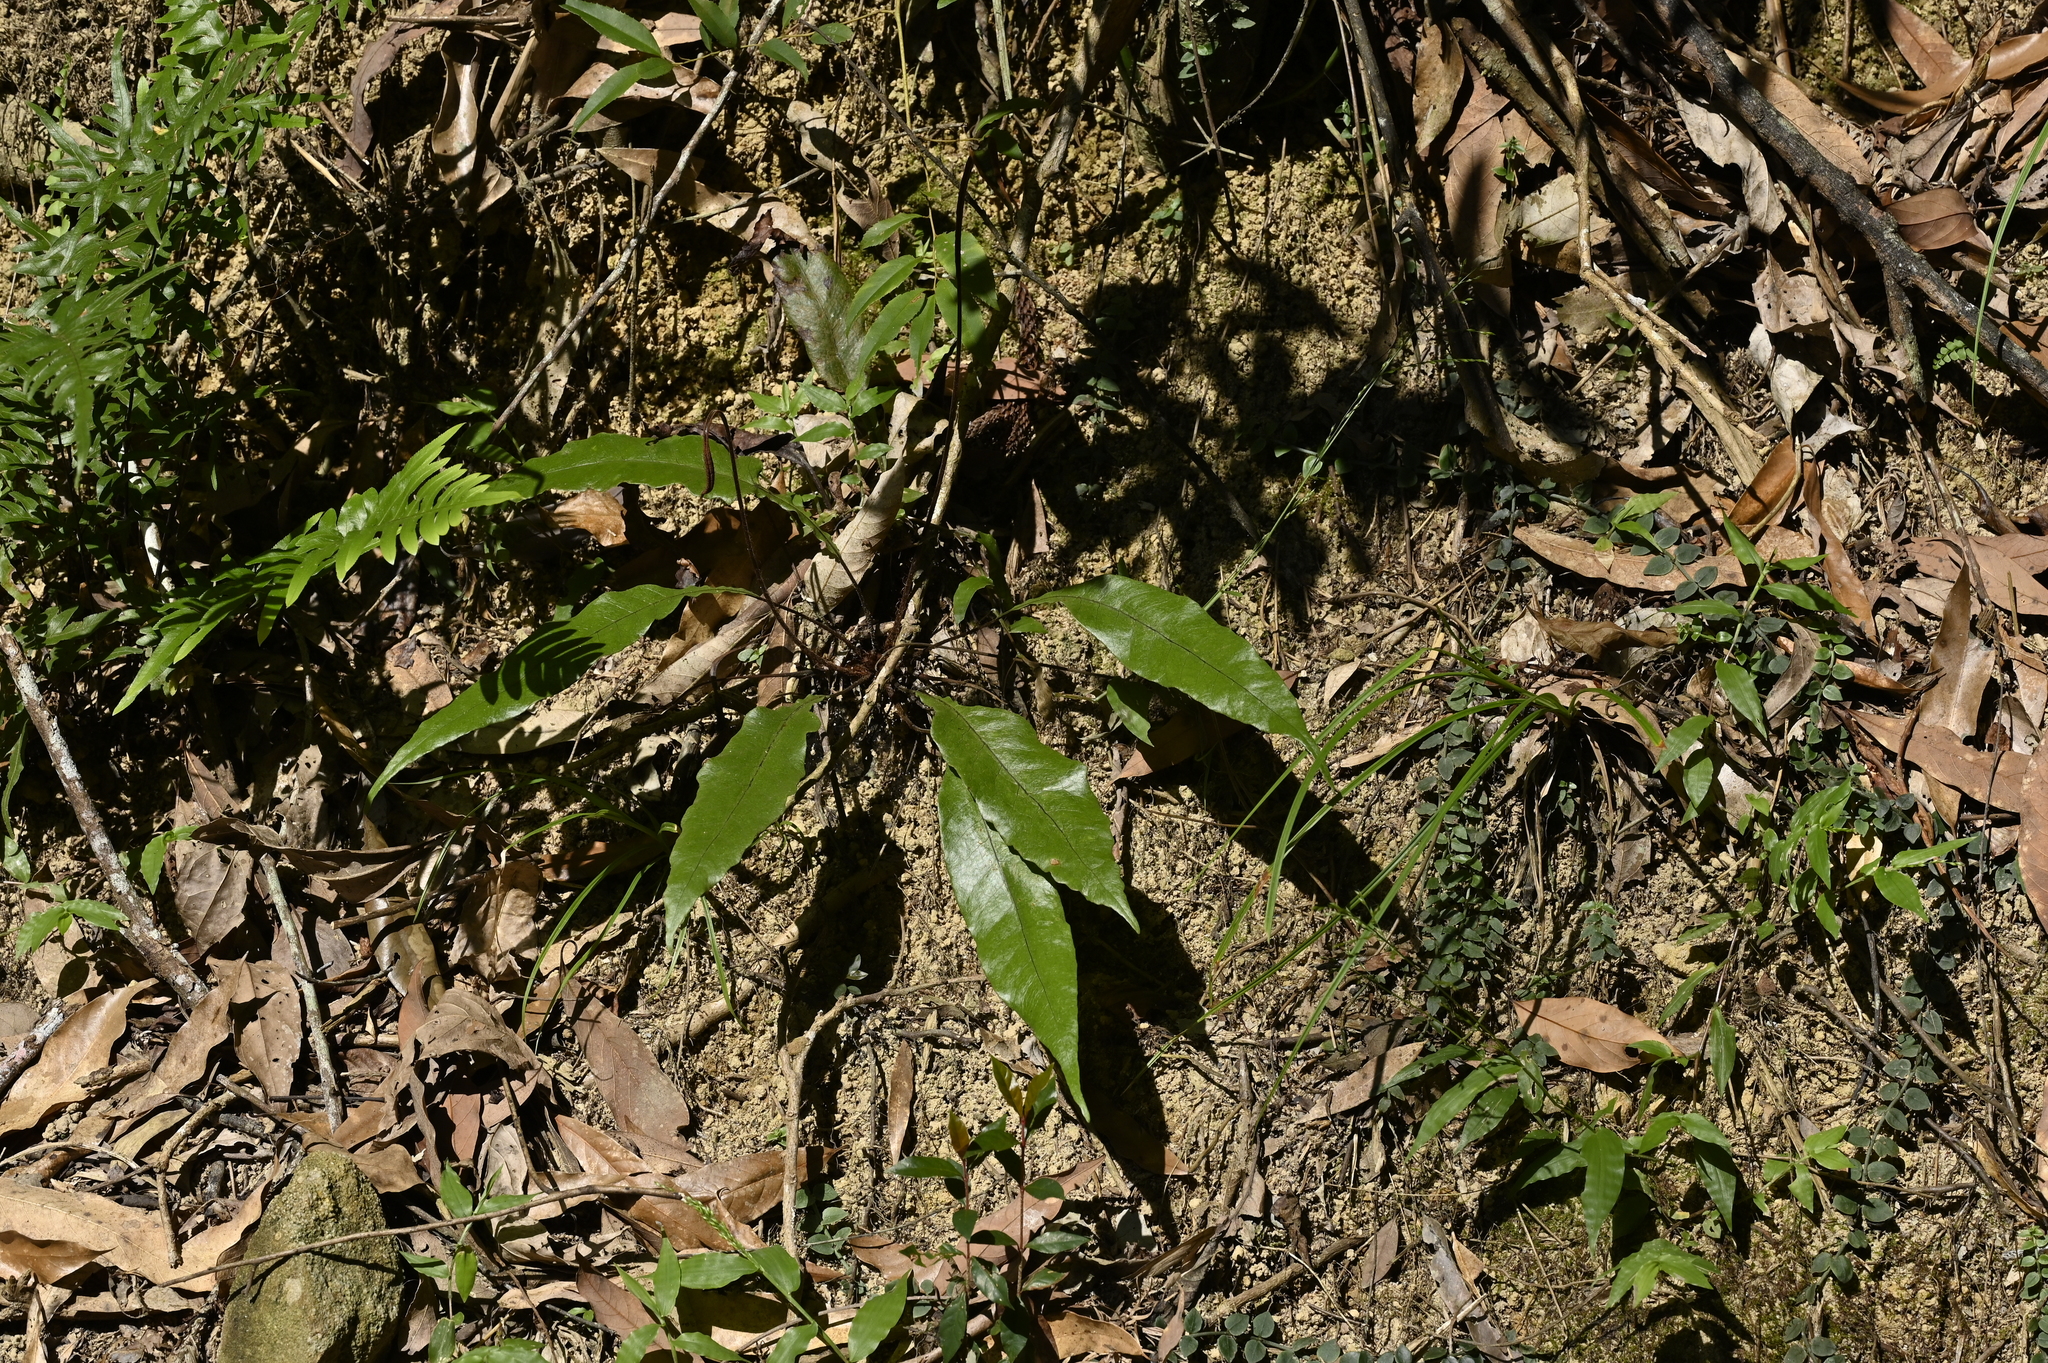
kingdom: Plantae
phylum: Tracheophyta
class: Polypodiopsida
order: Polypodiales
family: Tectariaceae
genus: Tectaria
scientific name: Tectaria harlandii
